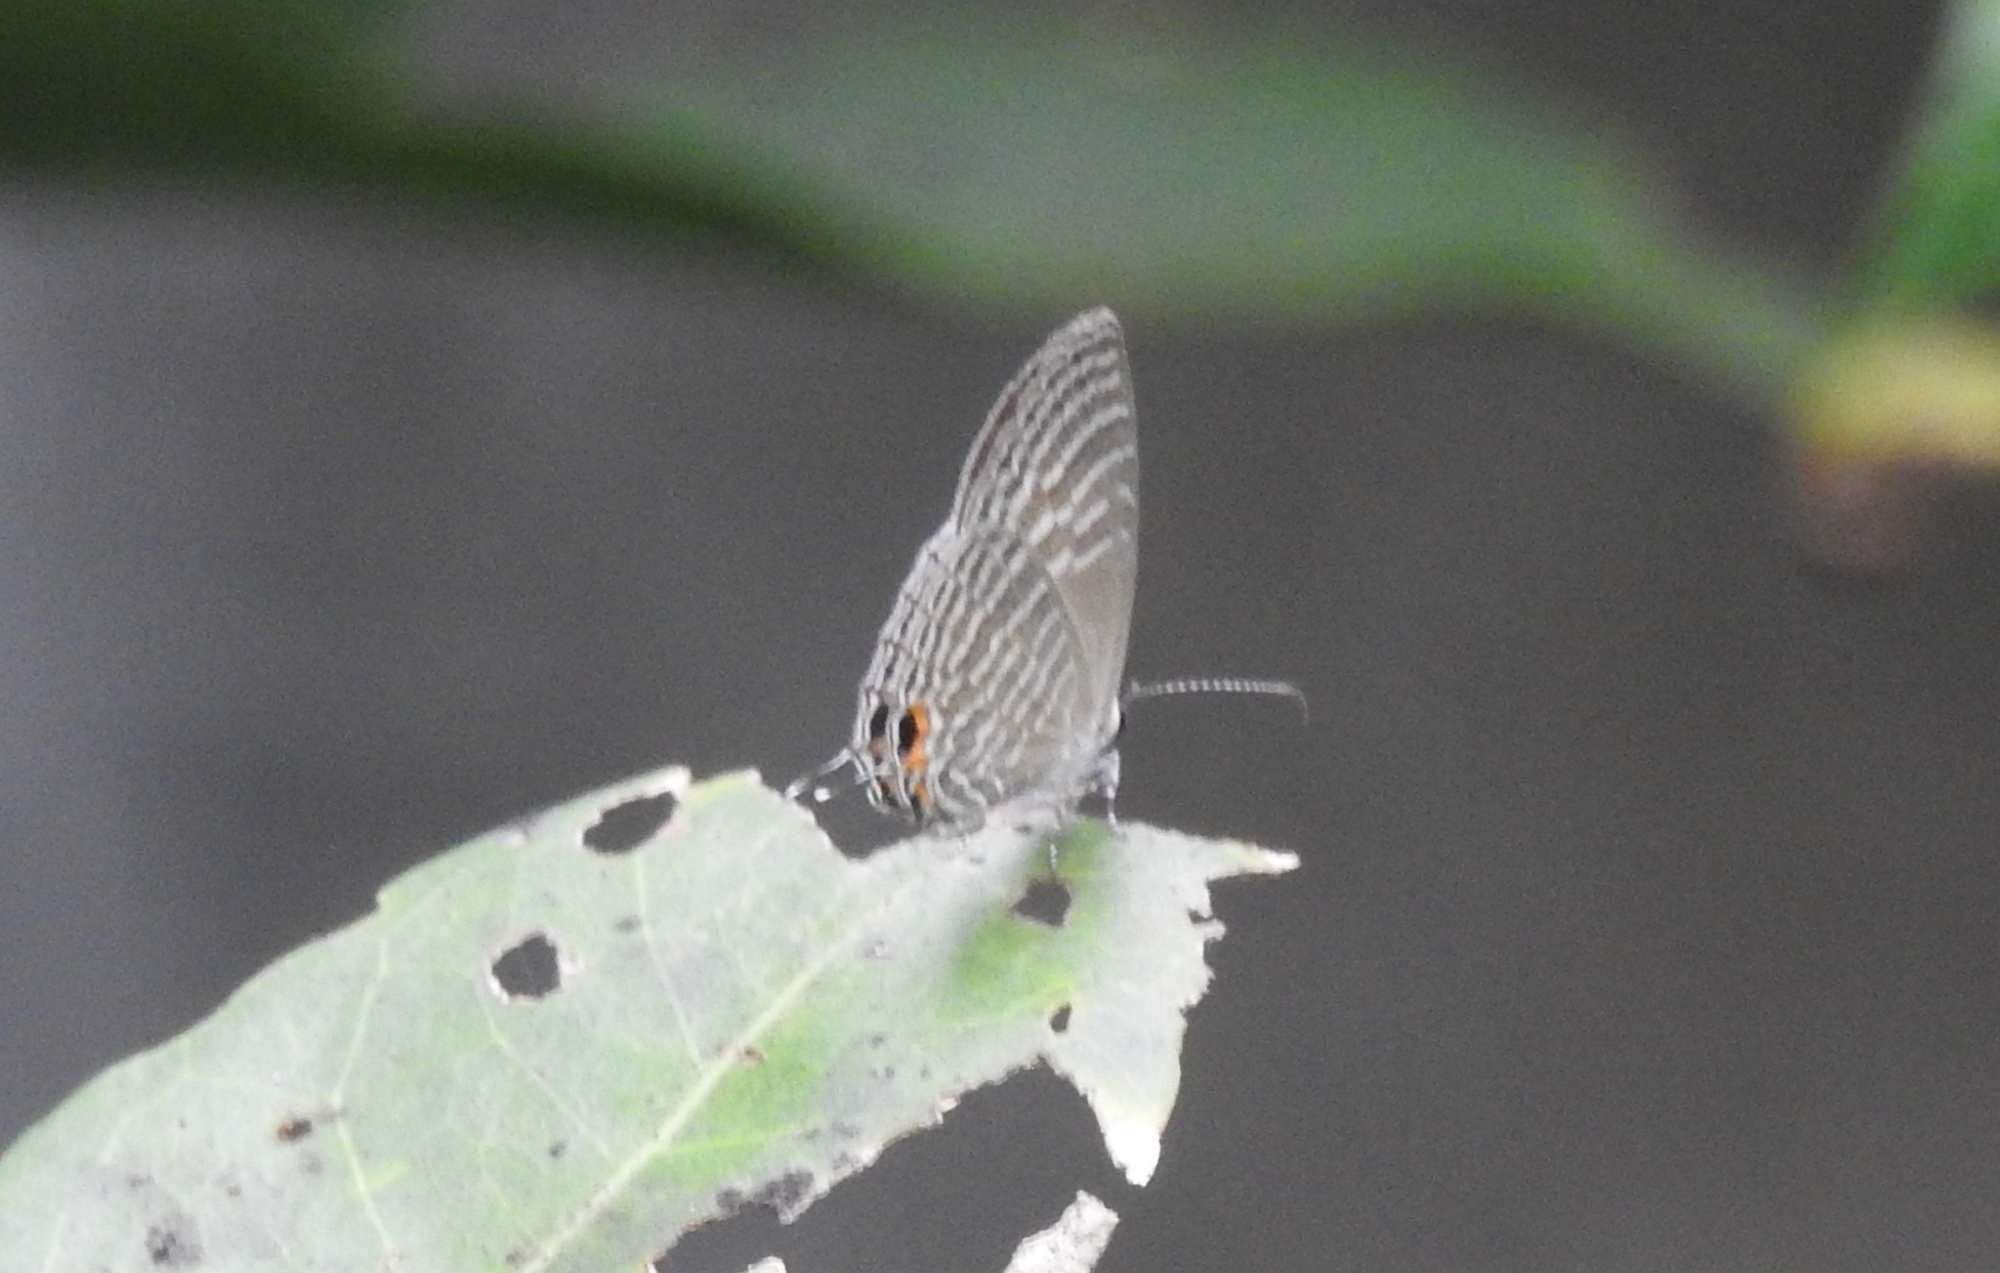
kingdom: Animalia
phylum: Arthropoda
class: Insecta
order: Lepidoptera
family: Lycaenidae
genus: Jamides
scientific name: Jamides celeno
